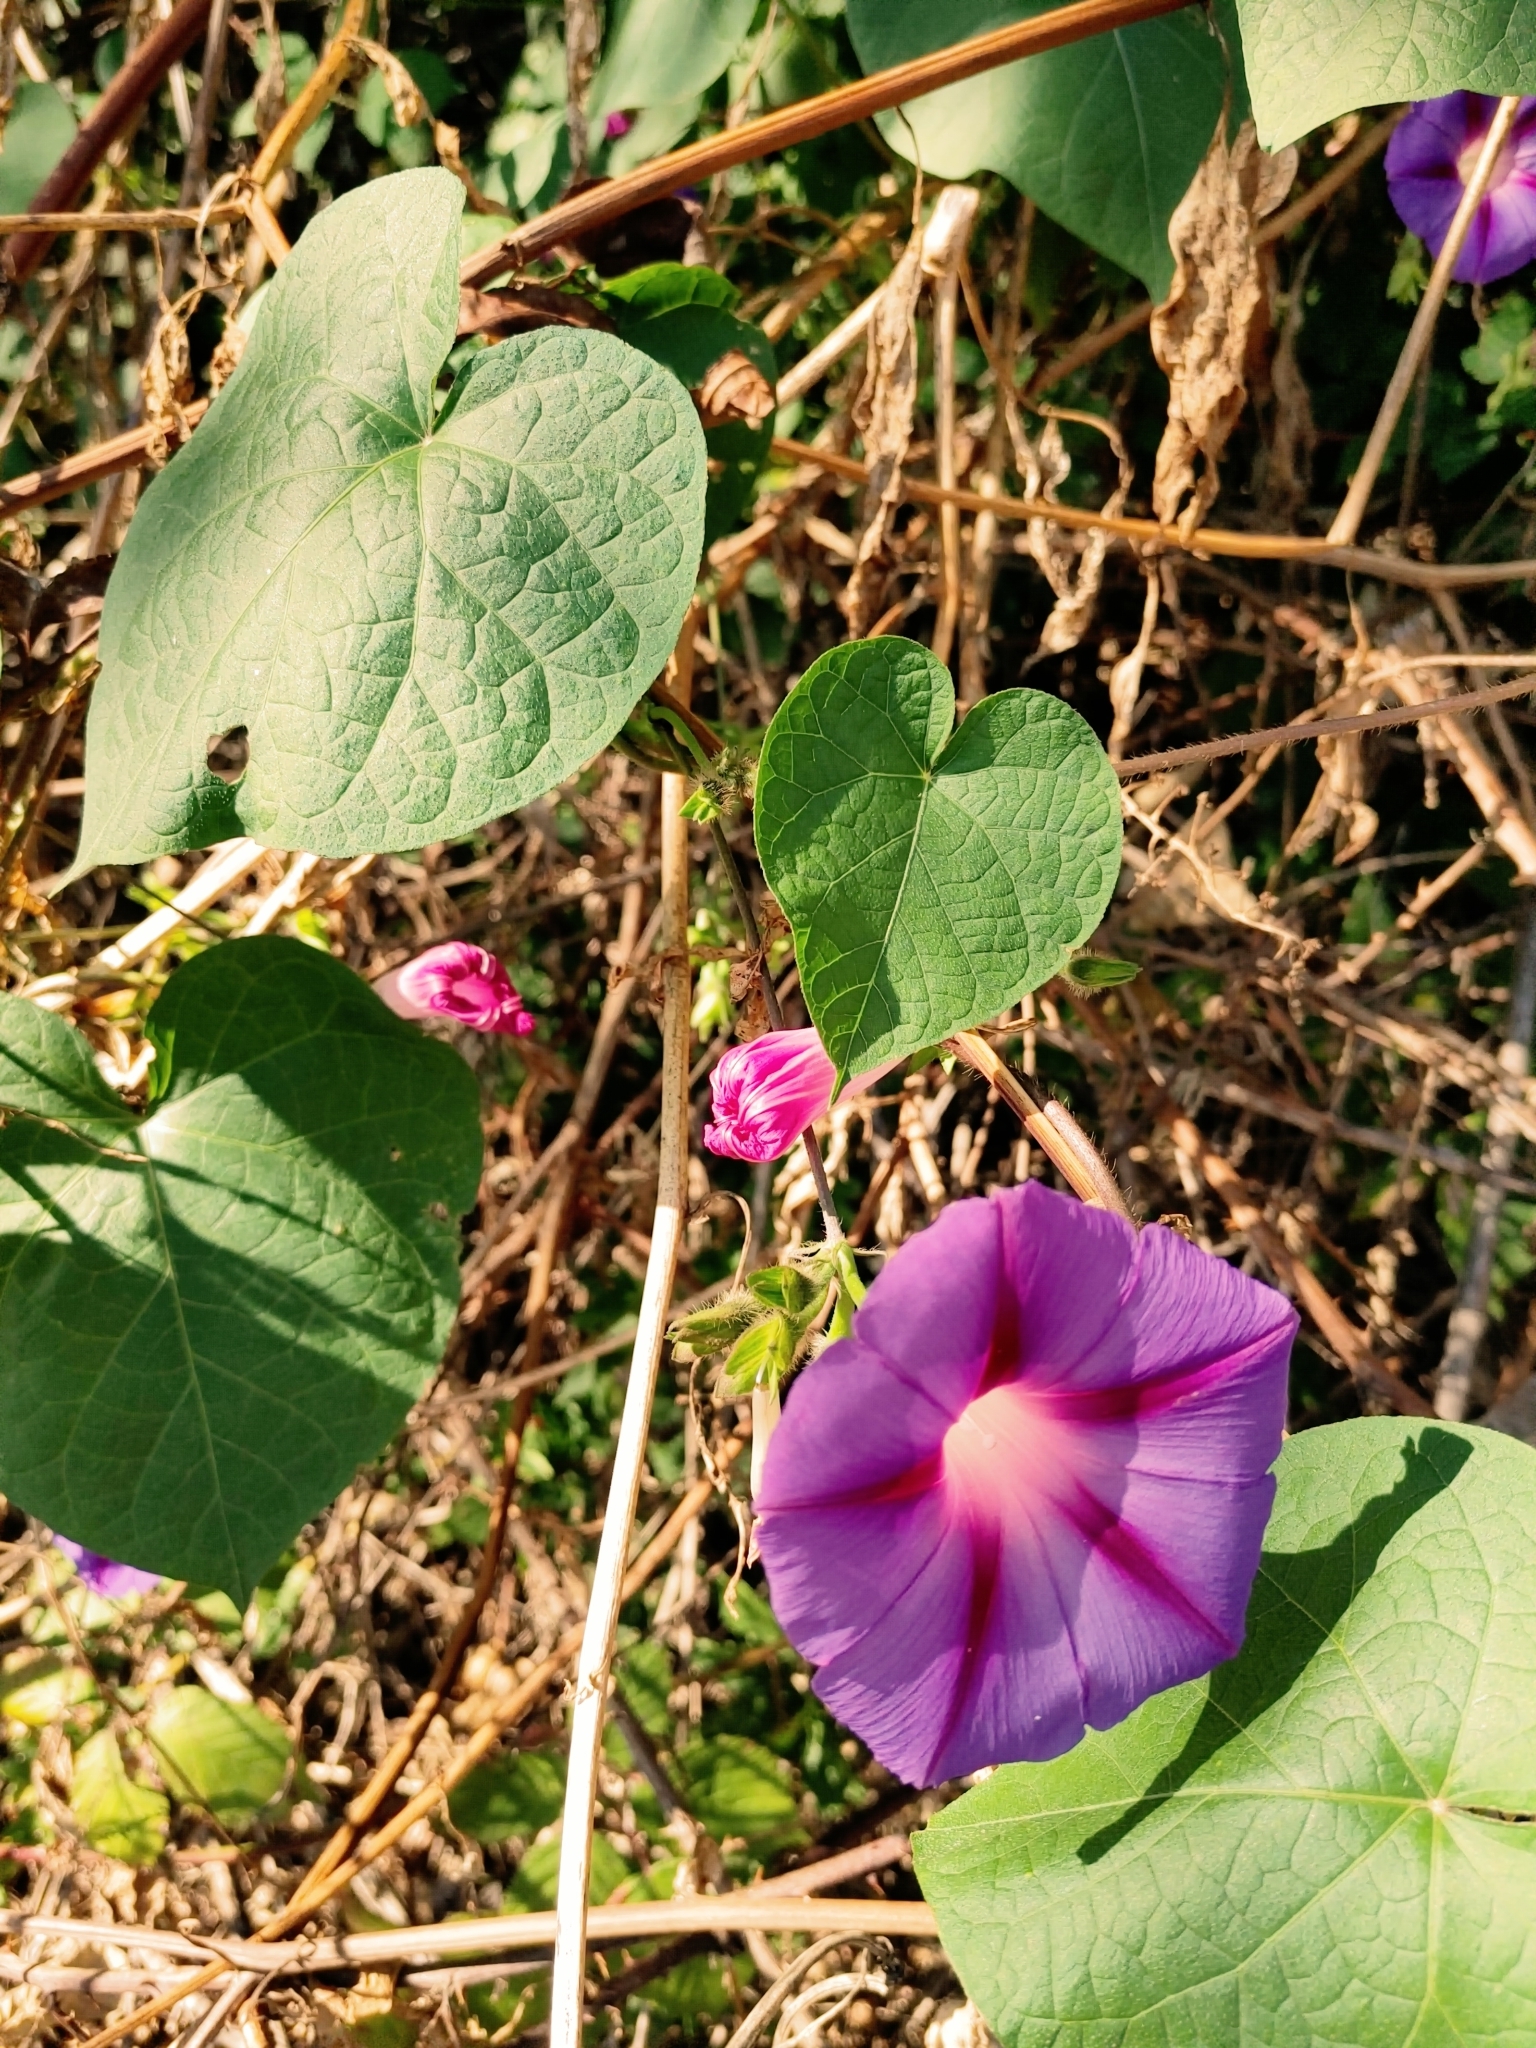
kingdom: Plantae
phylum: Tracheophyta
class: Magnoliopsida
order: Solanales
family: Convolvulaceae
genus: Ipomoea
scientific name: Ipomoea purpurea
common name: Common morning-glory
